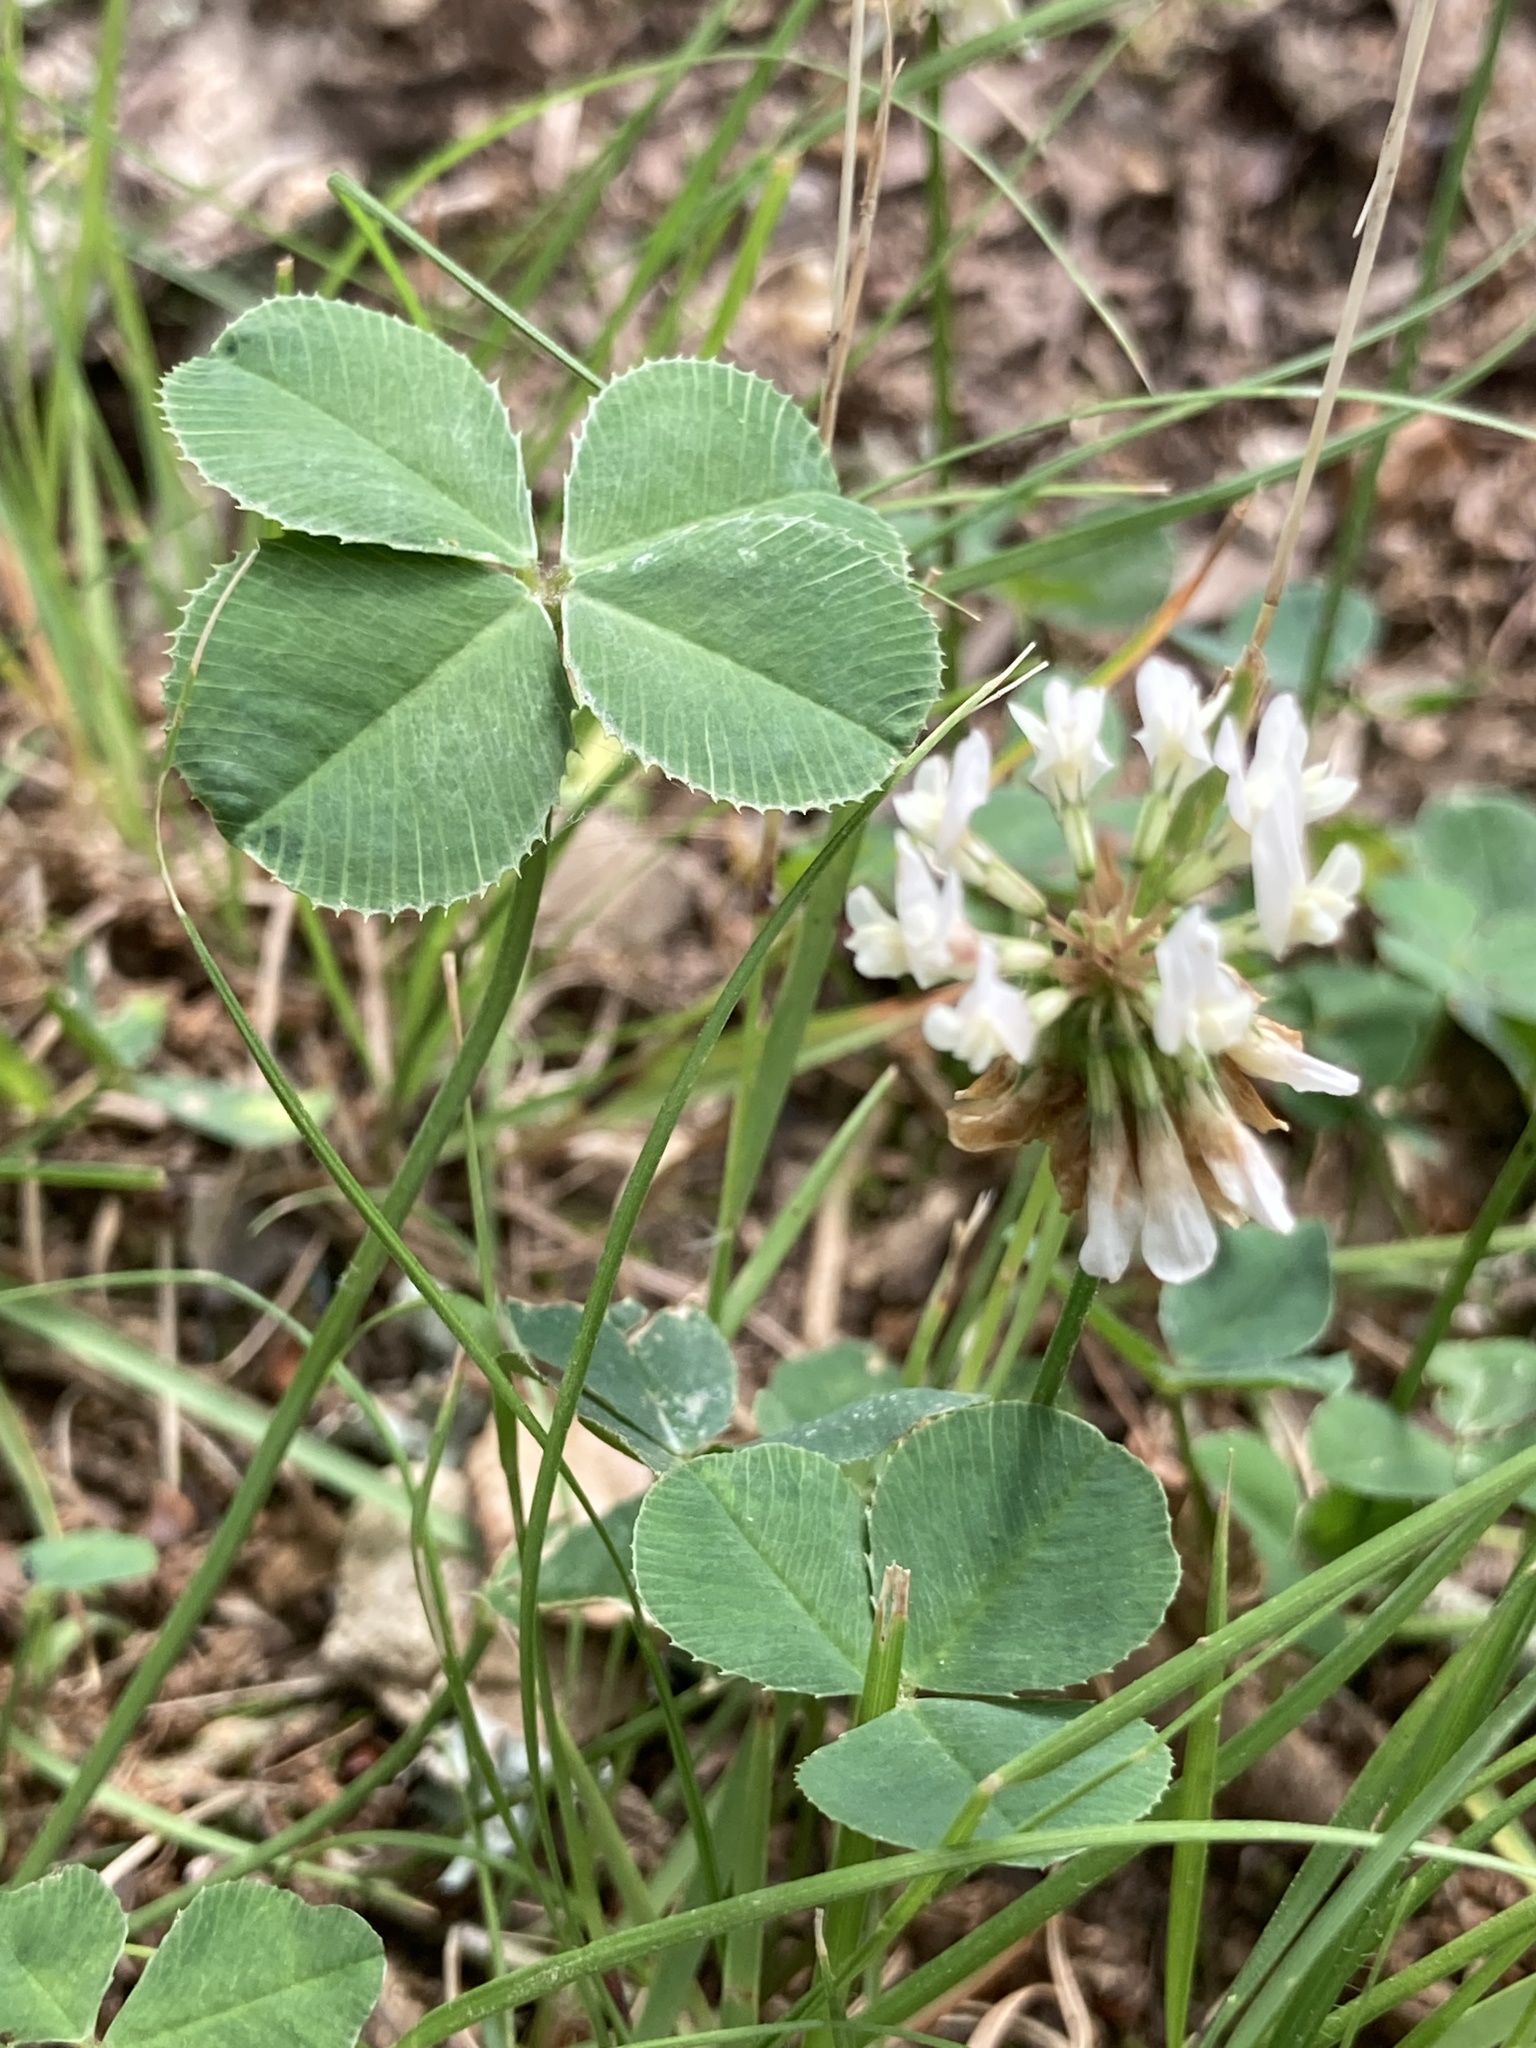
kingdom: Plantae
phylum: Tracheophyta
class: Magnoliopsida
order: Fabales
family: Fabaceae
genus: Trifolium
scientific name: Trifolium repens
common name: White clover
